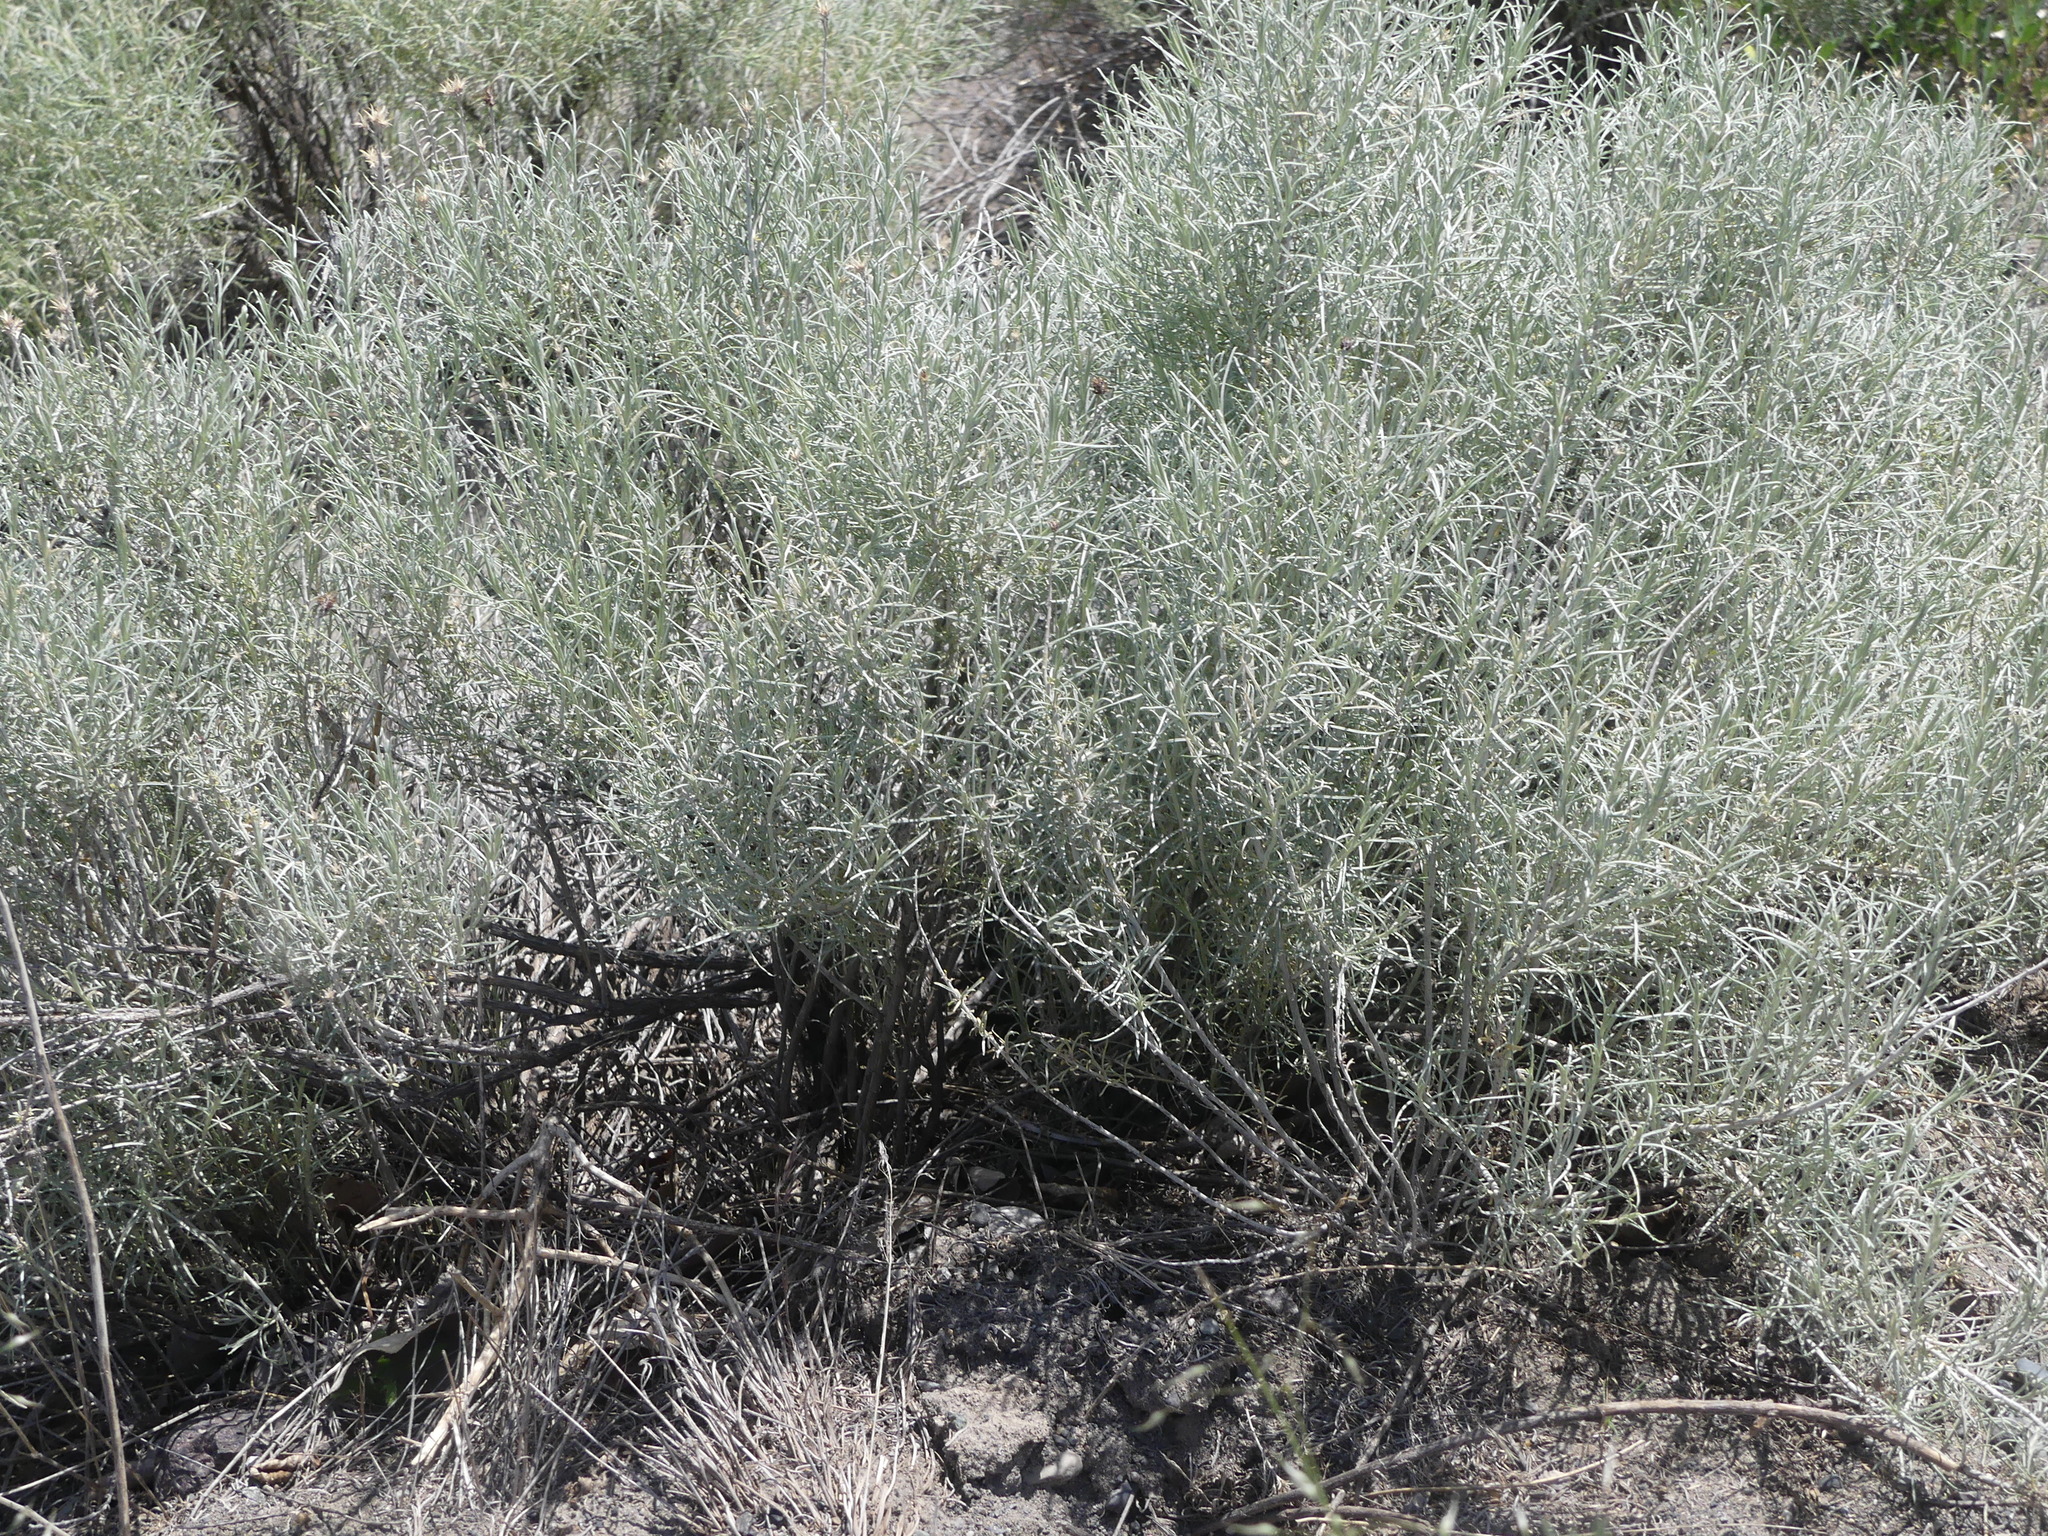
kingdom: Plantae
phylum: Tracheophyta
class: Magnoliopsida
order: Asterales
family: Asteraceae
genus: Ericameria
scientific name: Ericameria nauseosa
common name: Rubber rabbitbrush
